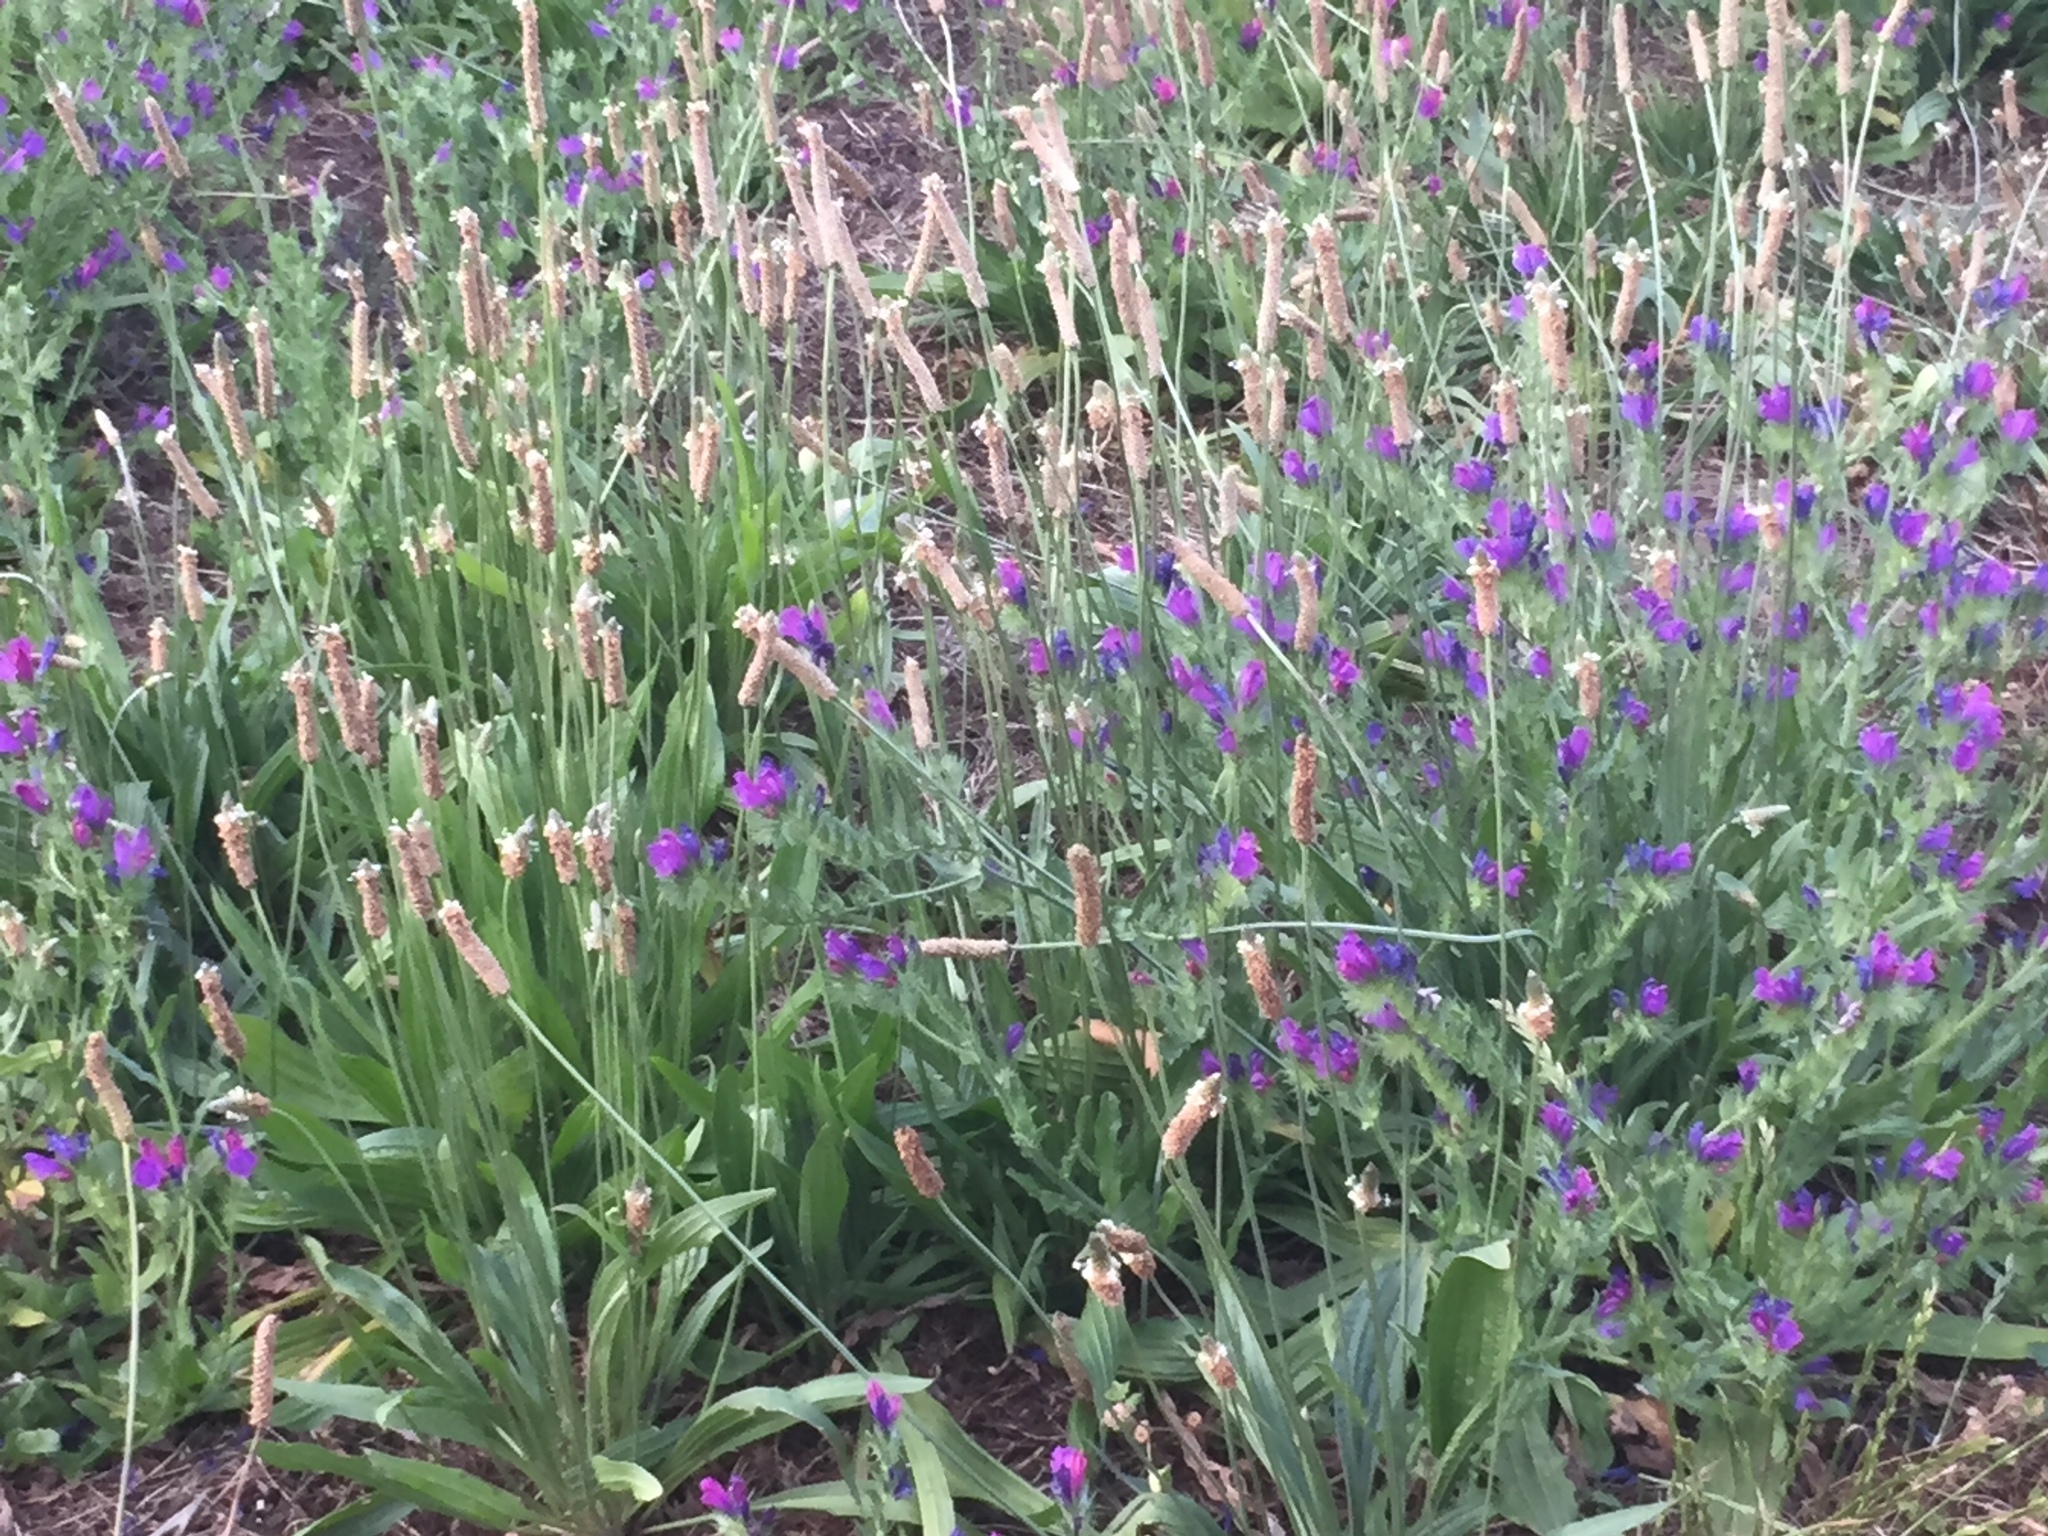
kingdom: Plantae
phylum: Tracheophyta
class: Magnoliopsida
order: Lamiales
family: Plantaginaceae
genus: Plantago
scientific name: Plantago lanceolata
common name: Ribwort plantain
